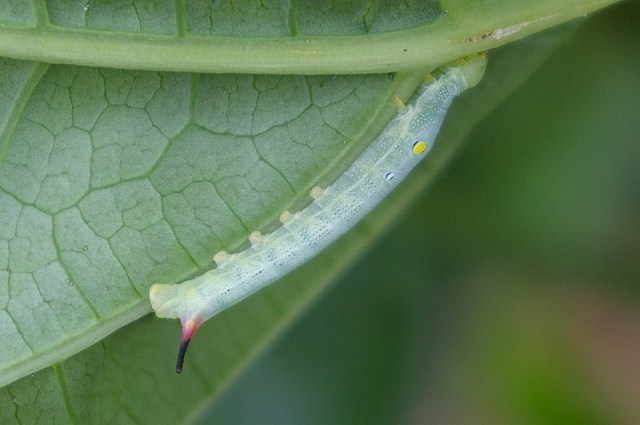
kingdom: Animalia
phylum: Arthropoda
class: Insecta
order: Lepidoptera
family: Sphingidae
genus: Hippotion
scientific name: Hippotion celerio
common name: Silver-striped hawk-moth
